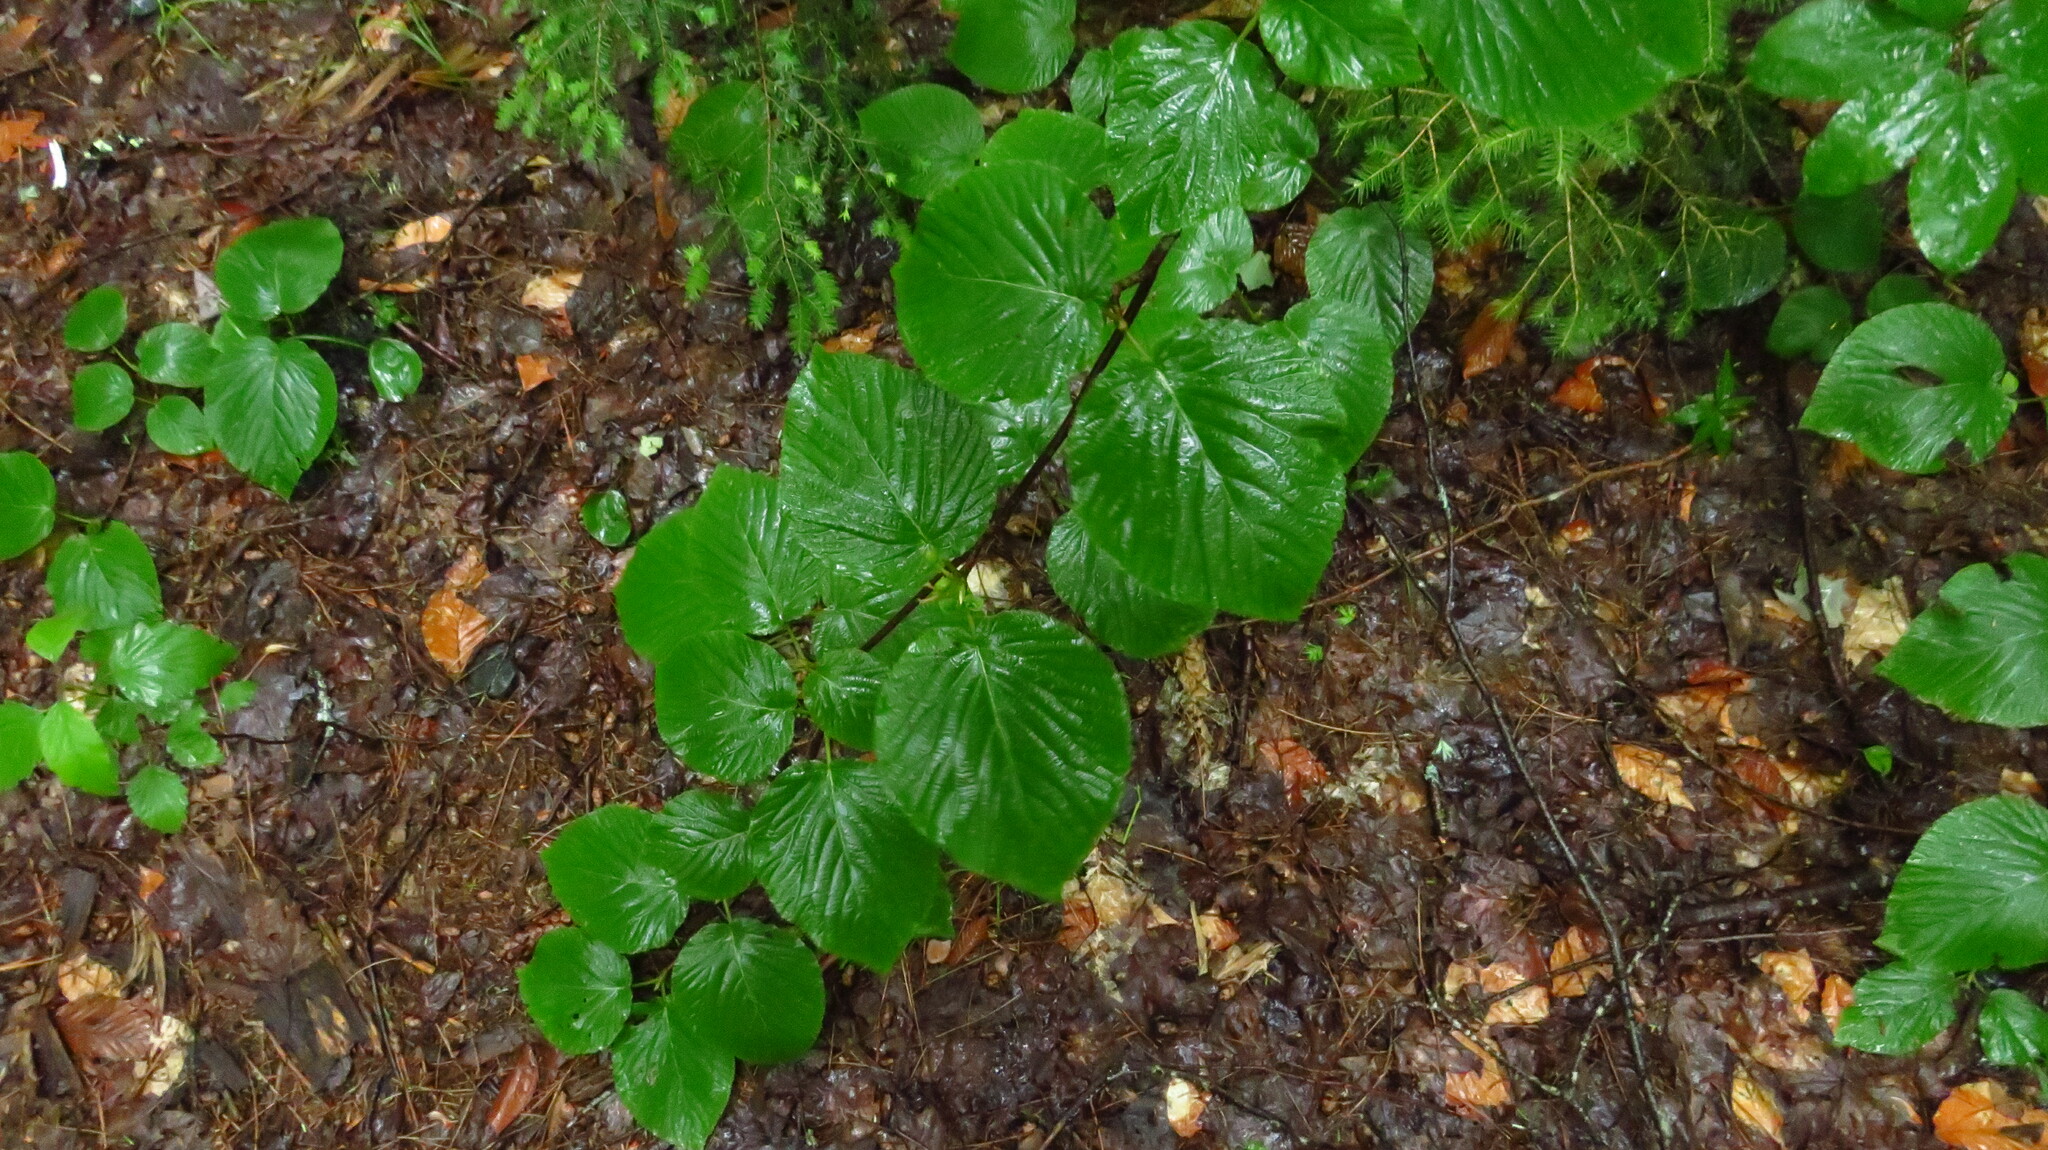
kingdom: Plantae
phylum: Tracheophyta
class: Magnoliopsida
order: Dipsacales
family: Viburnaceae
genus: Viburnum
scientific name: Viburnum lantanoides
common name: Hobblebush
